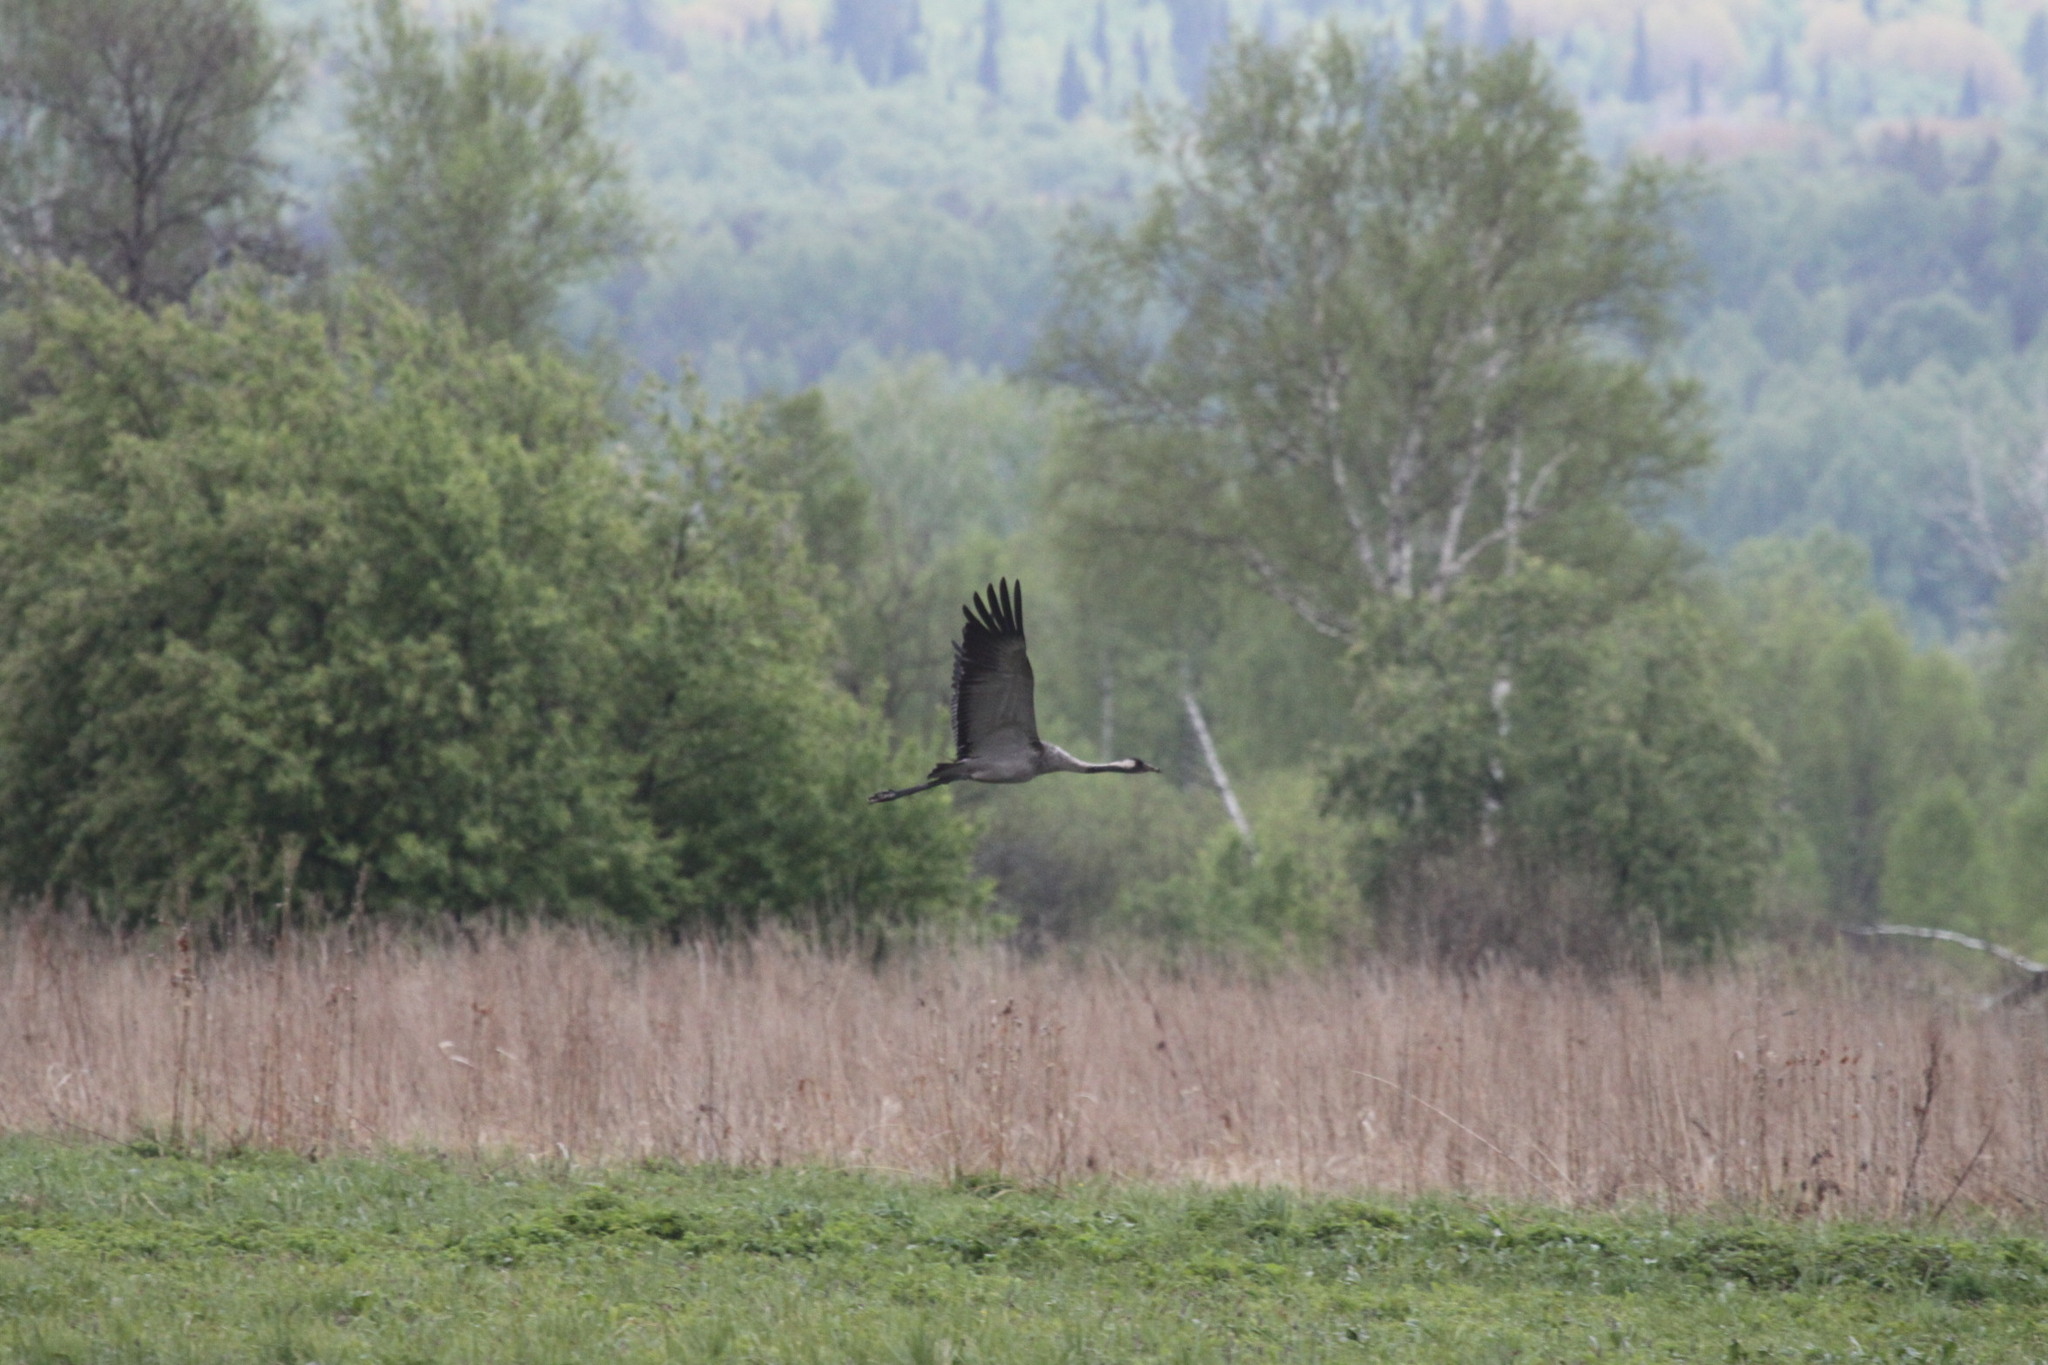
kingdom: Animalia
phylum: Chordata
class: Aves
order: Gruiformes
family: Gruidae
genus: Grus
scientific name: Grus grus
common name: Common crane
